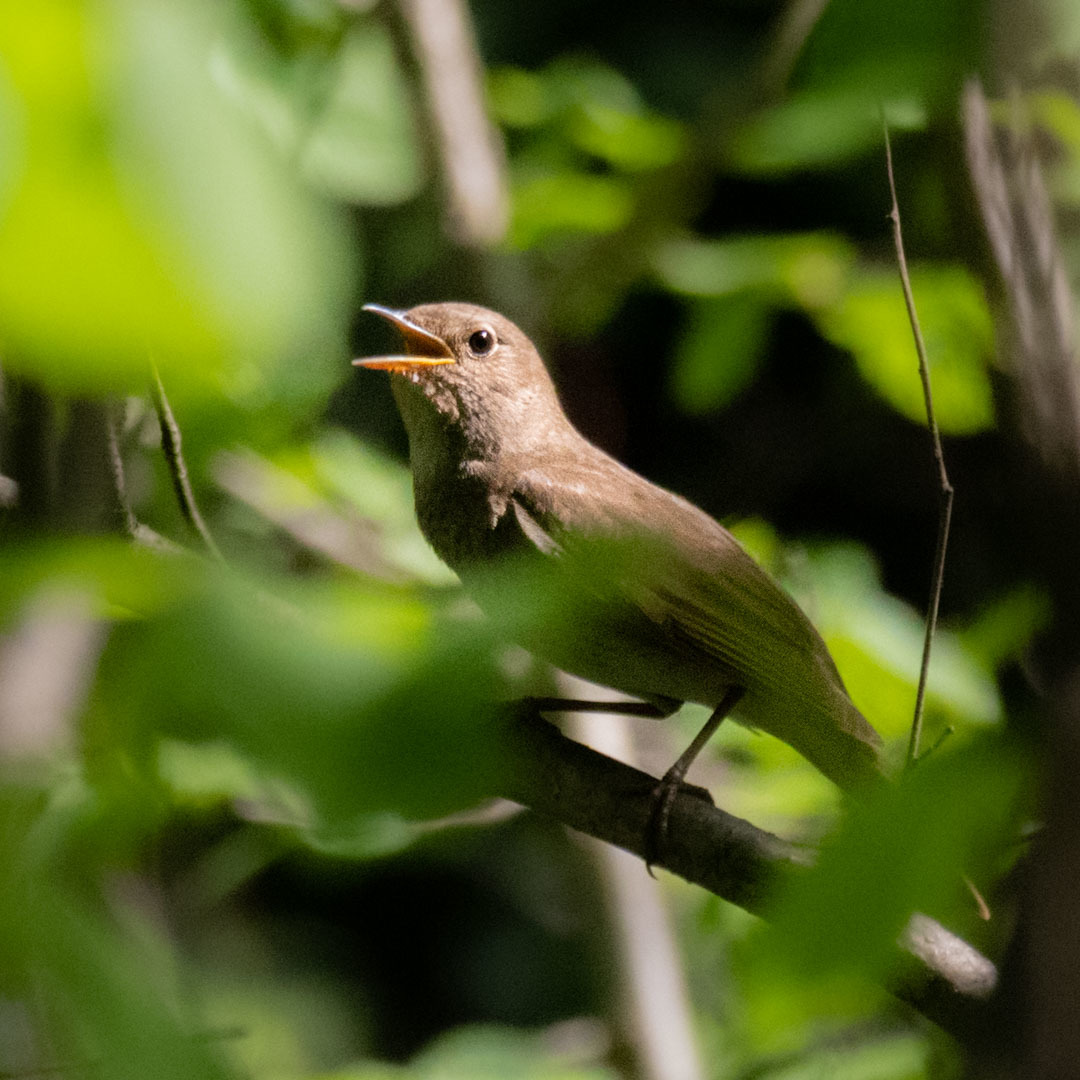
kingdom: Animalia
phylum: Chordata
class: Aves
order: Passeriformes
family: Muscicapidae
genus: Luscinia
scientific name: Luscinia luscinia
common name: Thrush nightingale
